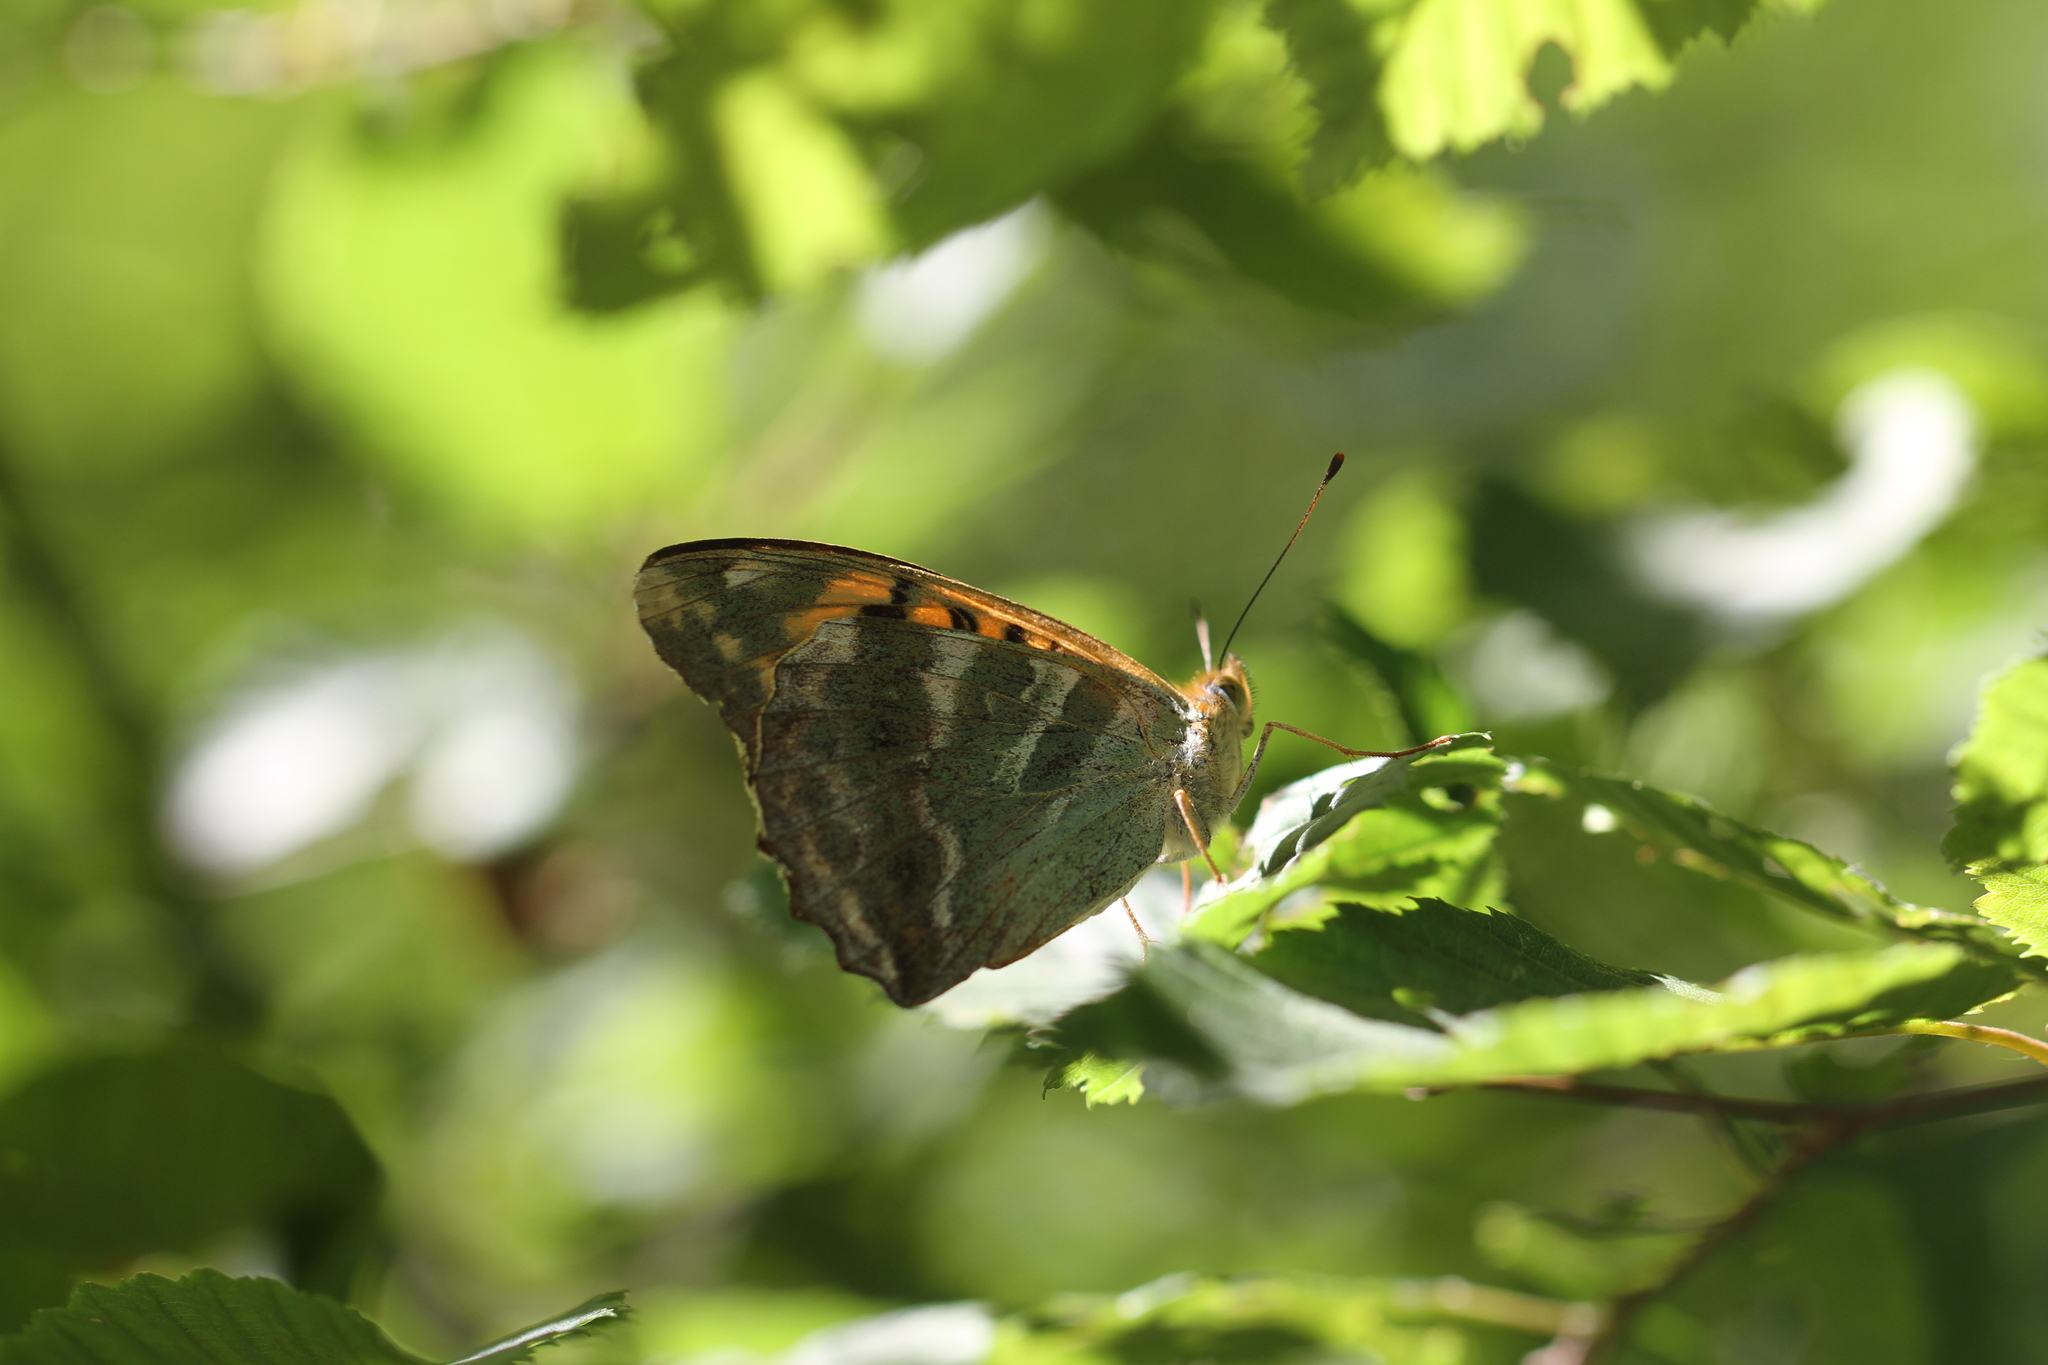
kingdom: Animalia
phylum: Arthropoda
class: Insecta
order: Lepidoptera
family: Nymphalidae
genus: Argynnis
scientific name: Argynnis paphia
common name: Silver-washed fritillary
